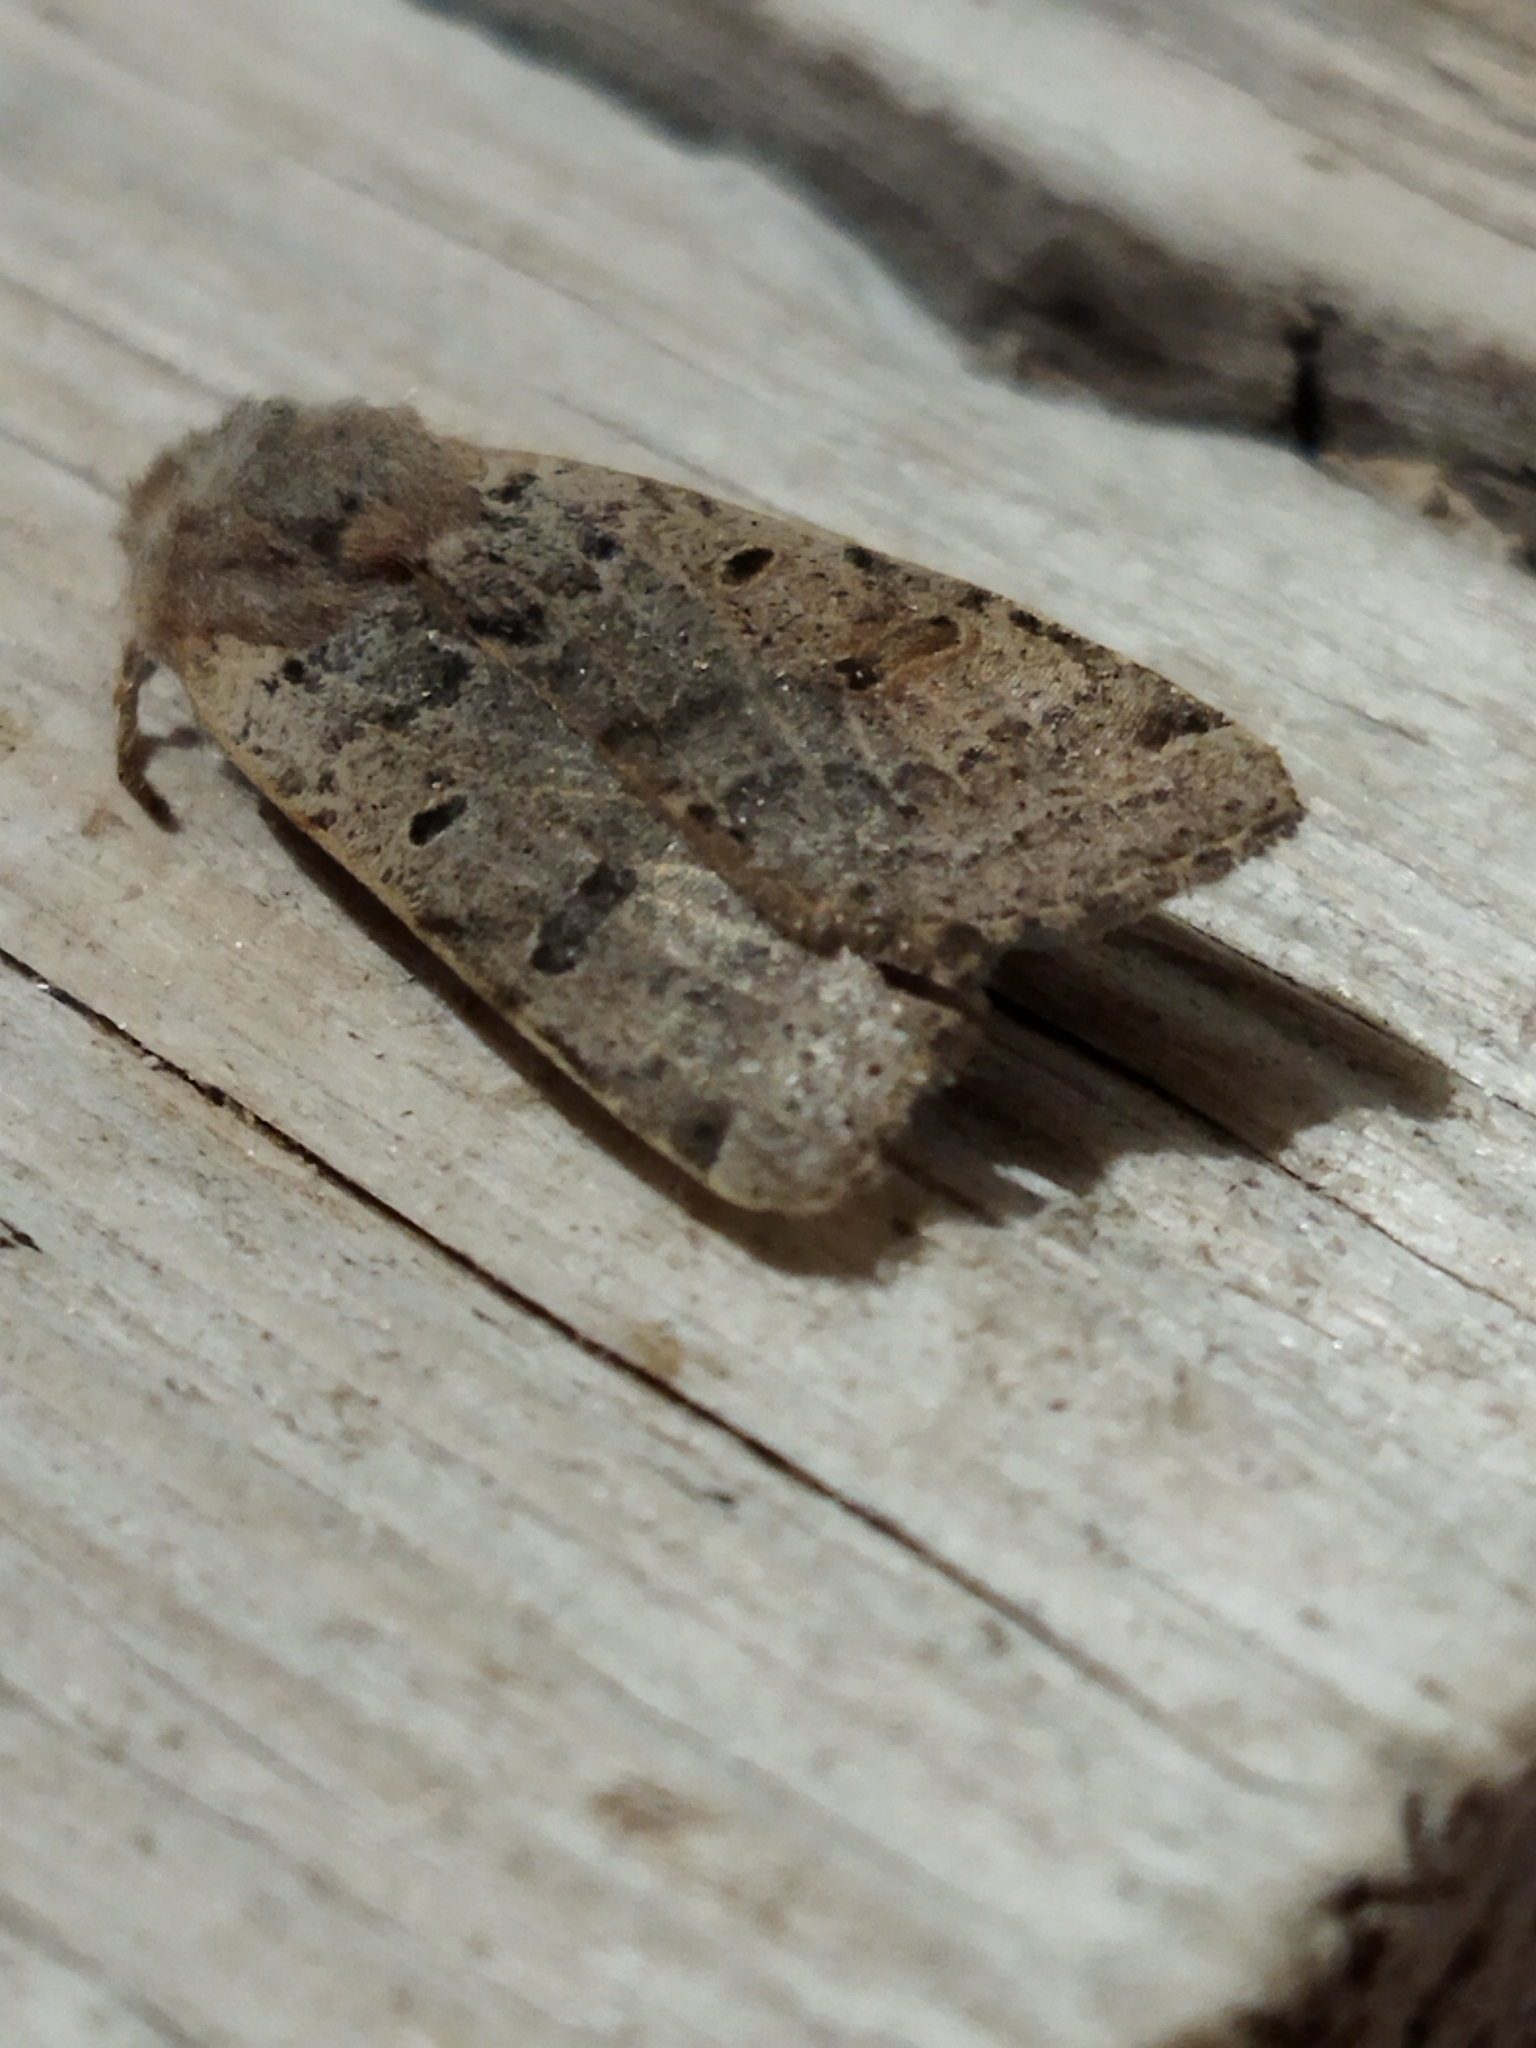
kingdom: Animalia
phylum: Arthropoda
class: Insecta
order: Lepidoptera
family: Noctuidae
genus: Agrochola
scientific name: Agrochola lychnidis
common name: Beaded chestnut
